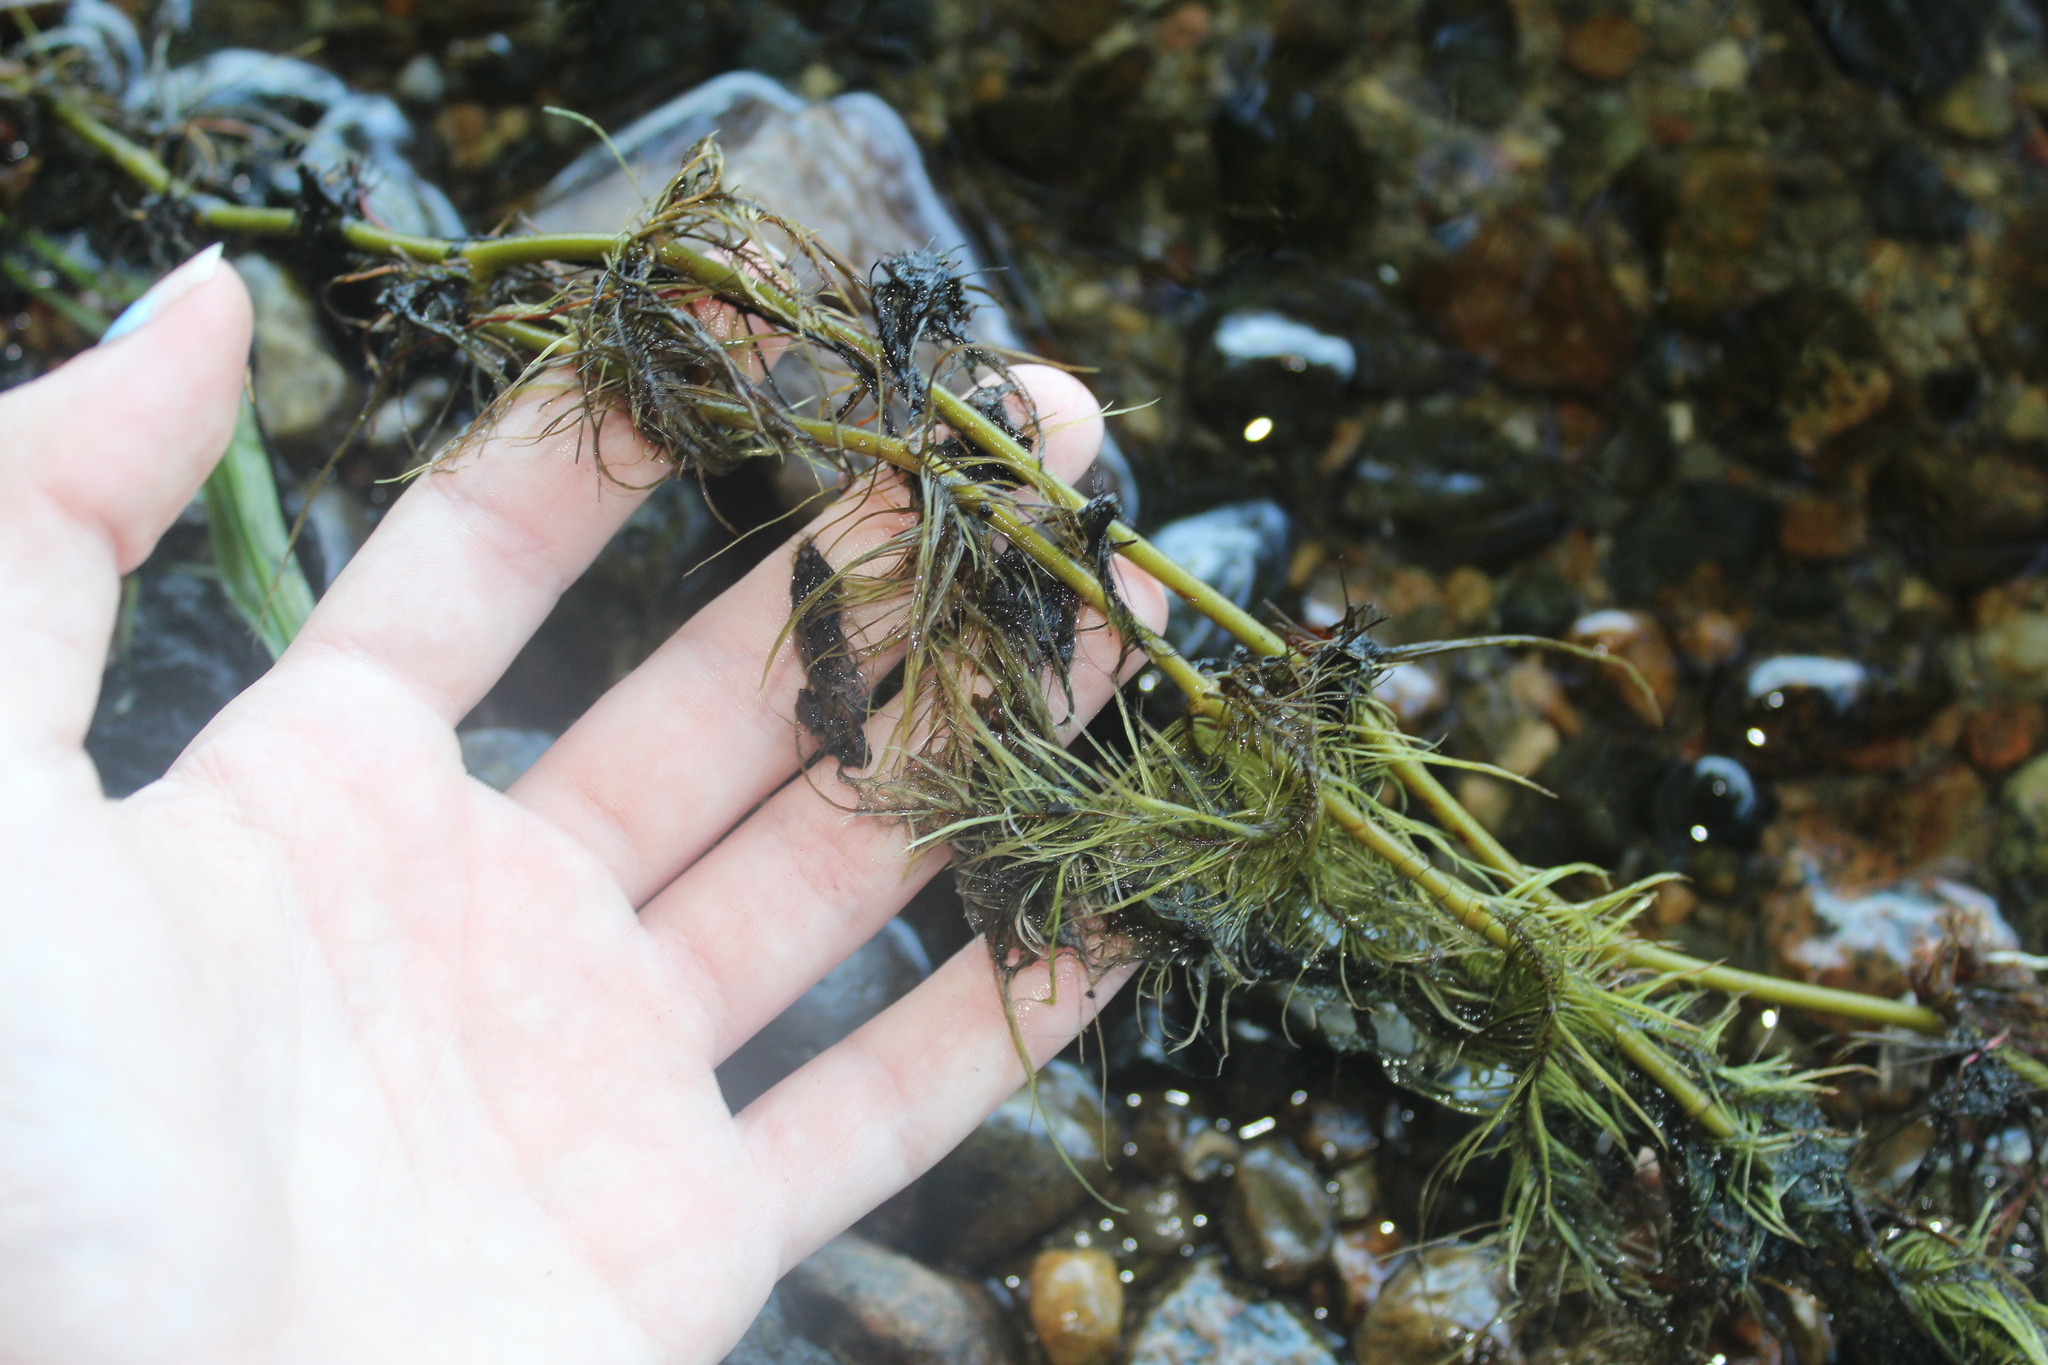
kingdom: Plantae
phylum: Tracheophyta
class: Magnoliopsida
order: Myrtales
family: Lythraceae
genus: Trapa
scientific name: Trapa natans
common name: Water chestnut
